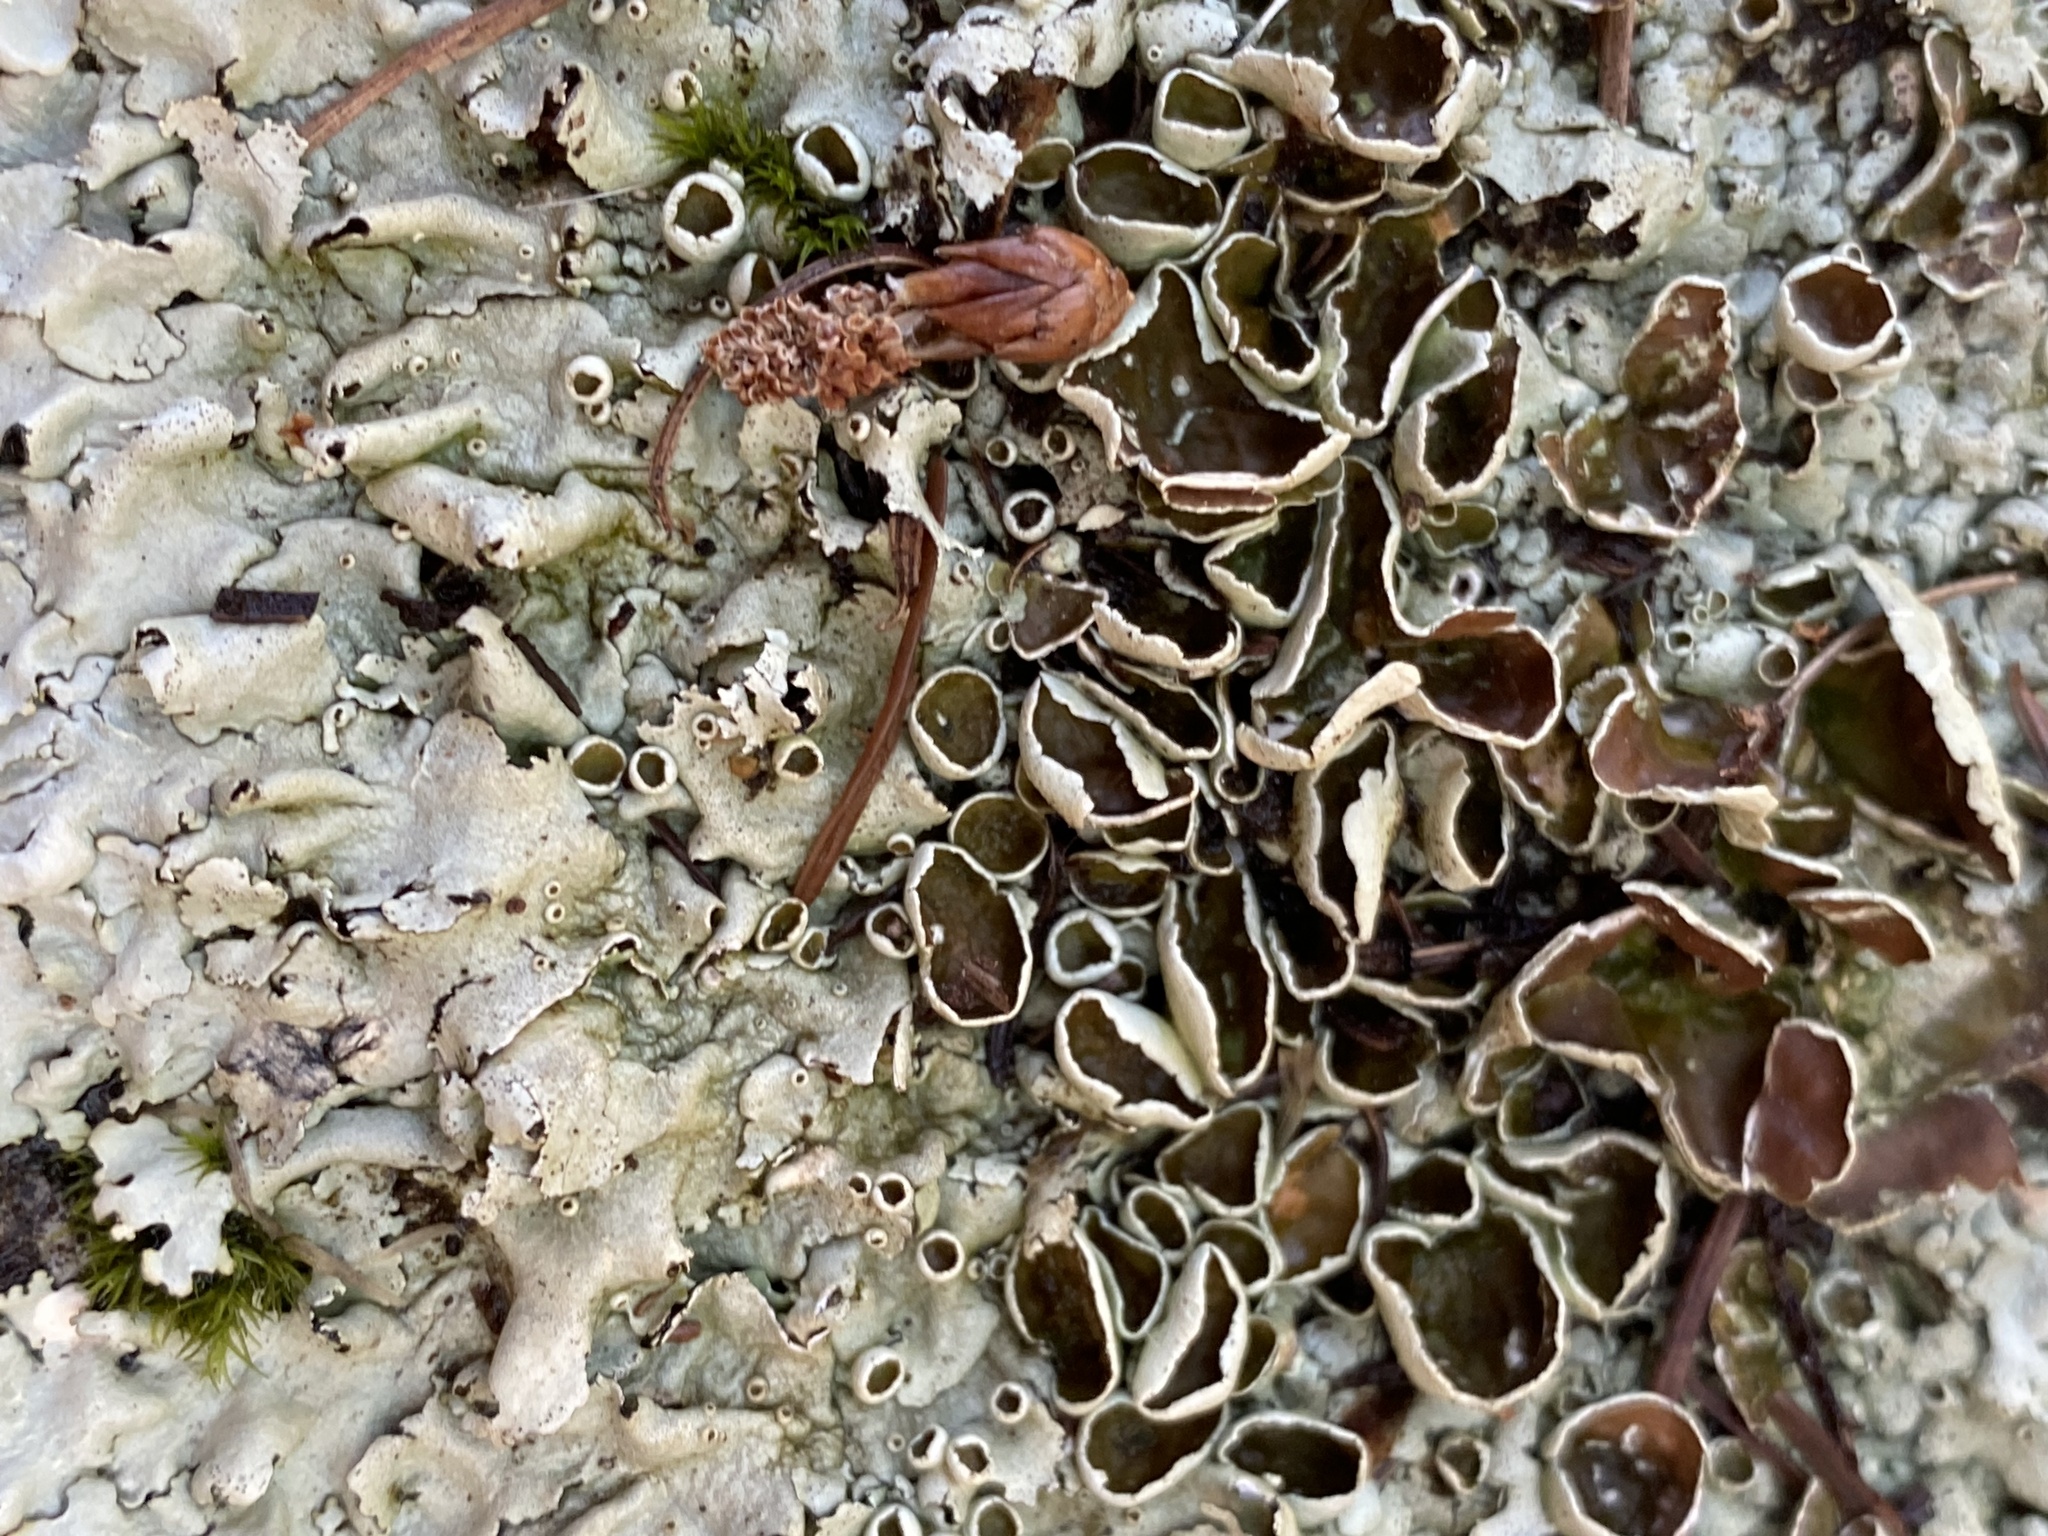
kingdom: Fungi
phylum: Ascomycota
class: Lecanoromycetes
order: Lecanorales
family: Parmeliaceae
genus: Xanthoparmelia
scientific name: Xanthoparmelia cumberlandia
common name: Cumberland rock shield
